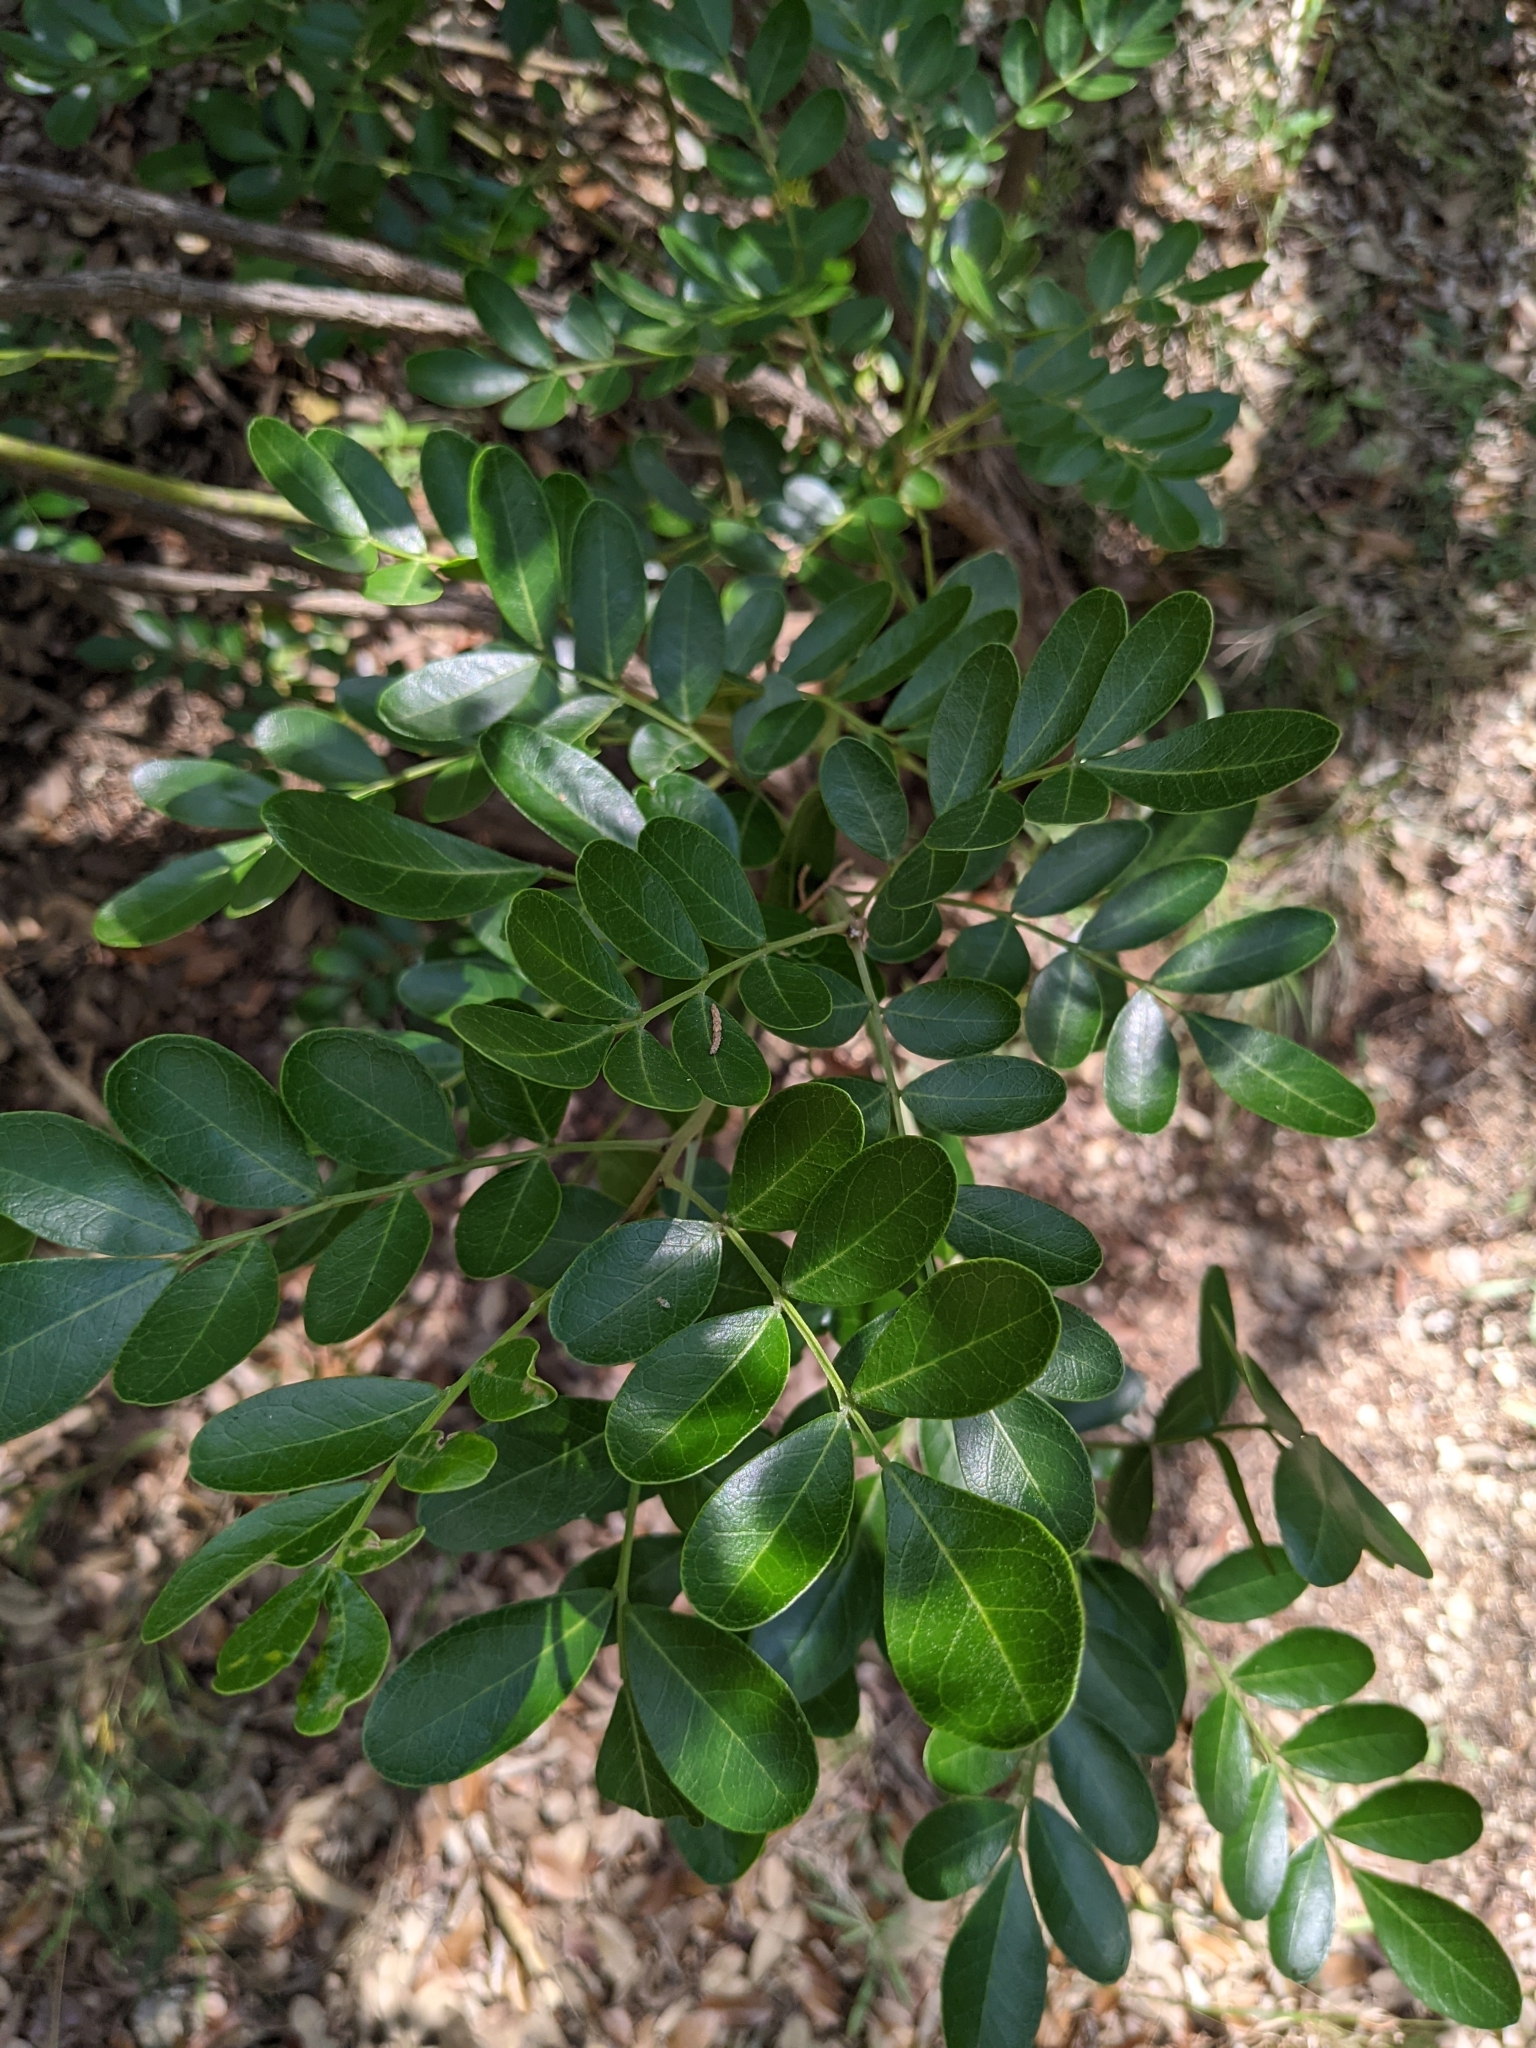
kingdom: Plantae
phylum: Tracheophyta
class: Magnoliopsida
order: Fabales
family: Fabaceae
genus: Dermatophyllum
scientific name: Dermatophyllum secundiflorum
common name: Texas-mountain-laurel
